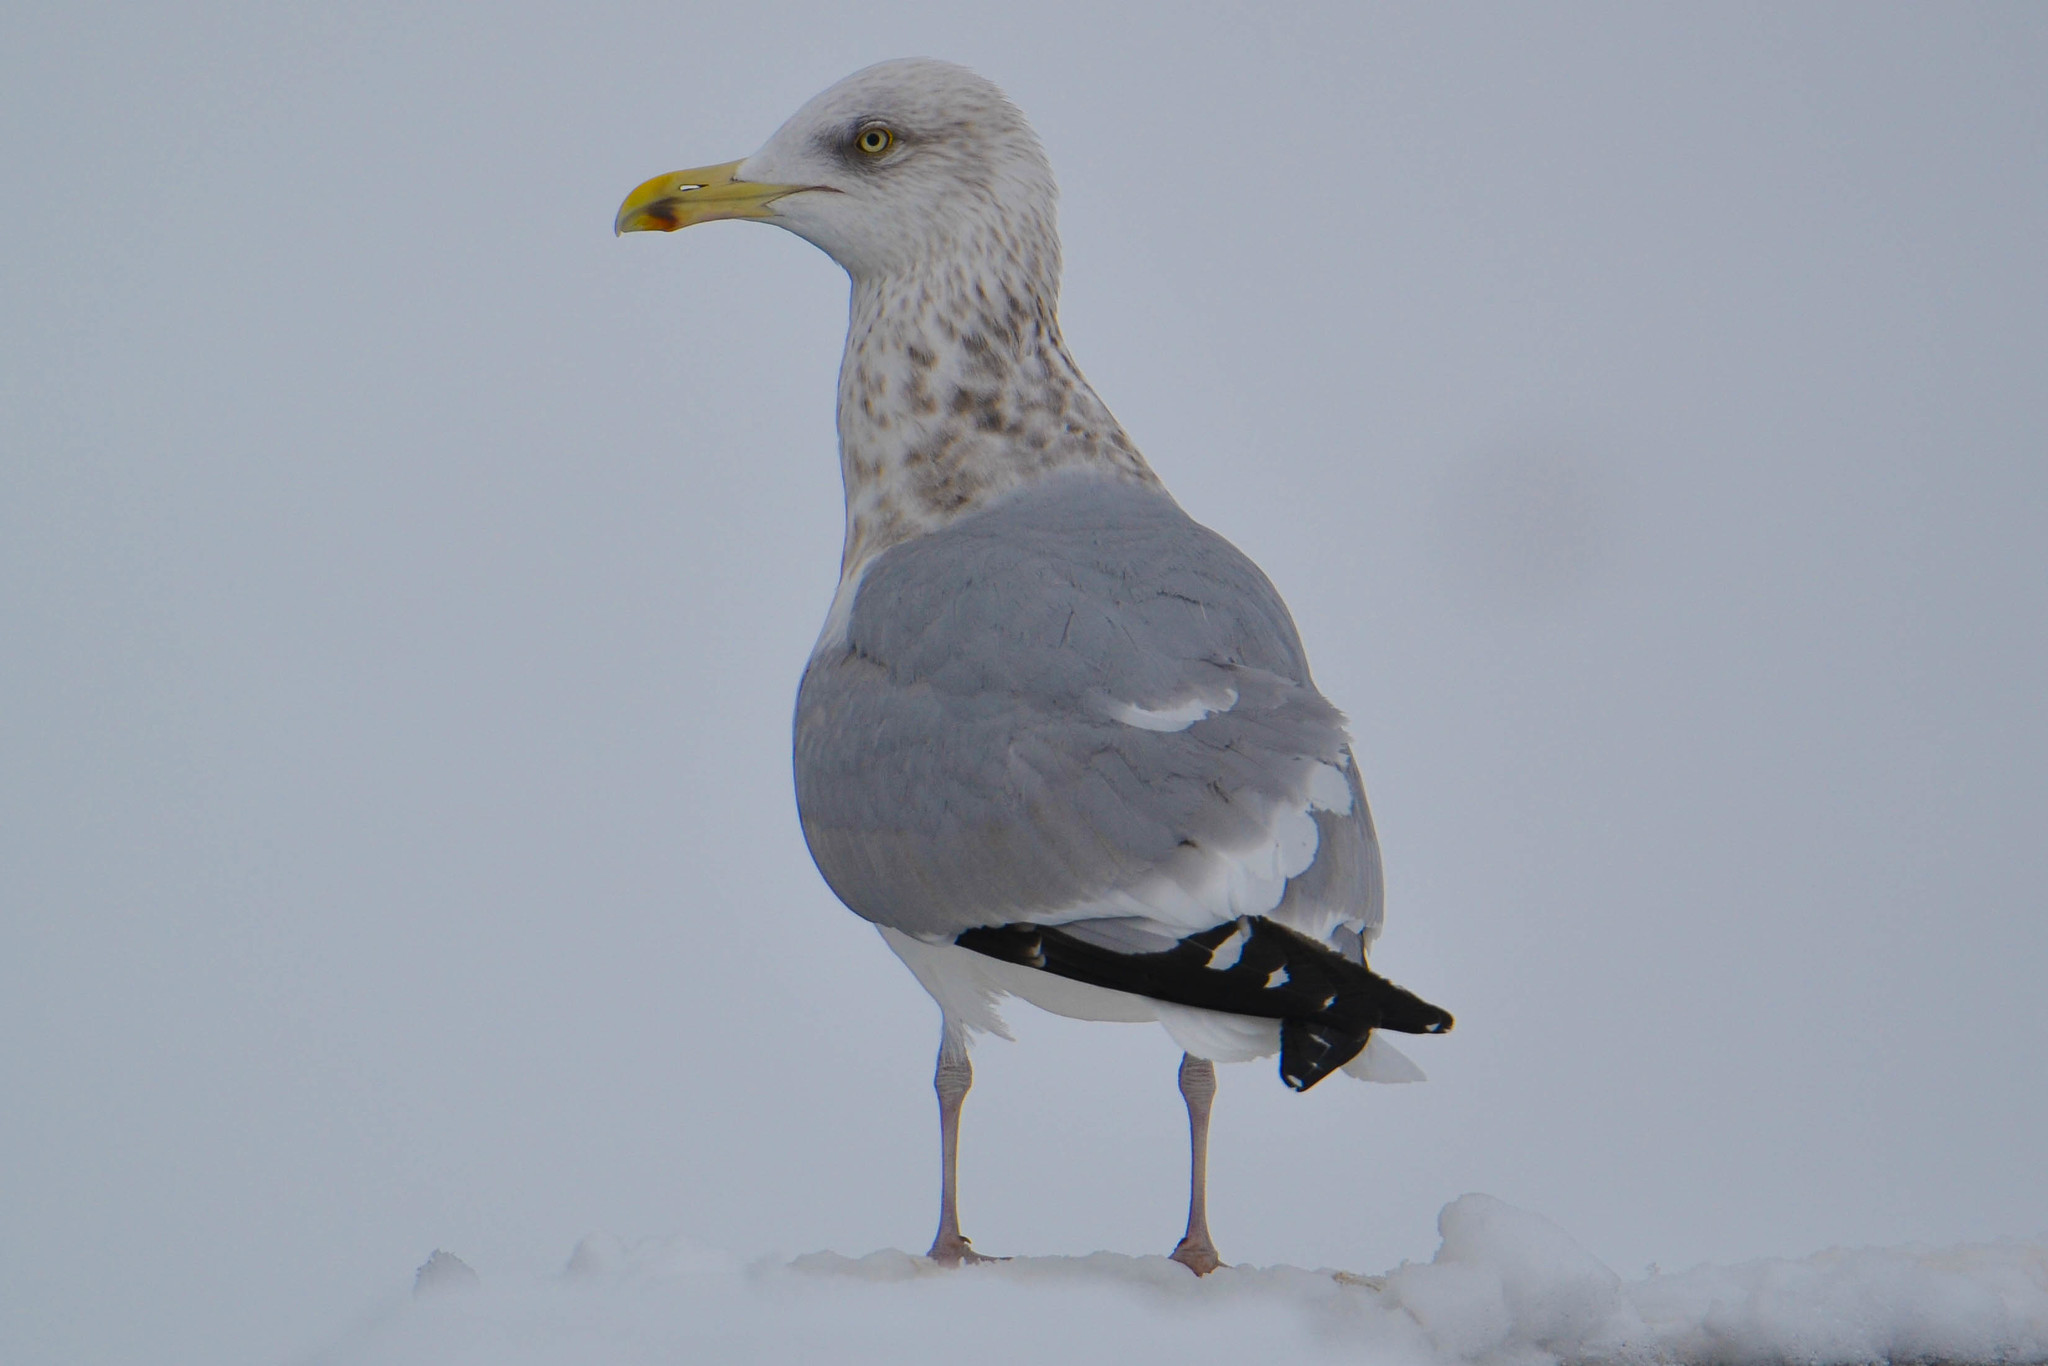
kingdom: Animalia
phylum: Chordata
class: Aves
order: Charadriiformes
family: Laridae
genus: Larus
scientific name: Larus smithsonianus
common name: American herring gull
